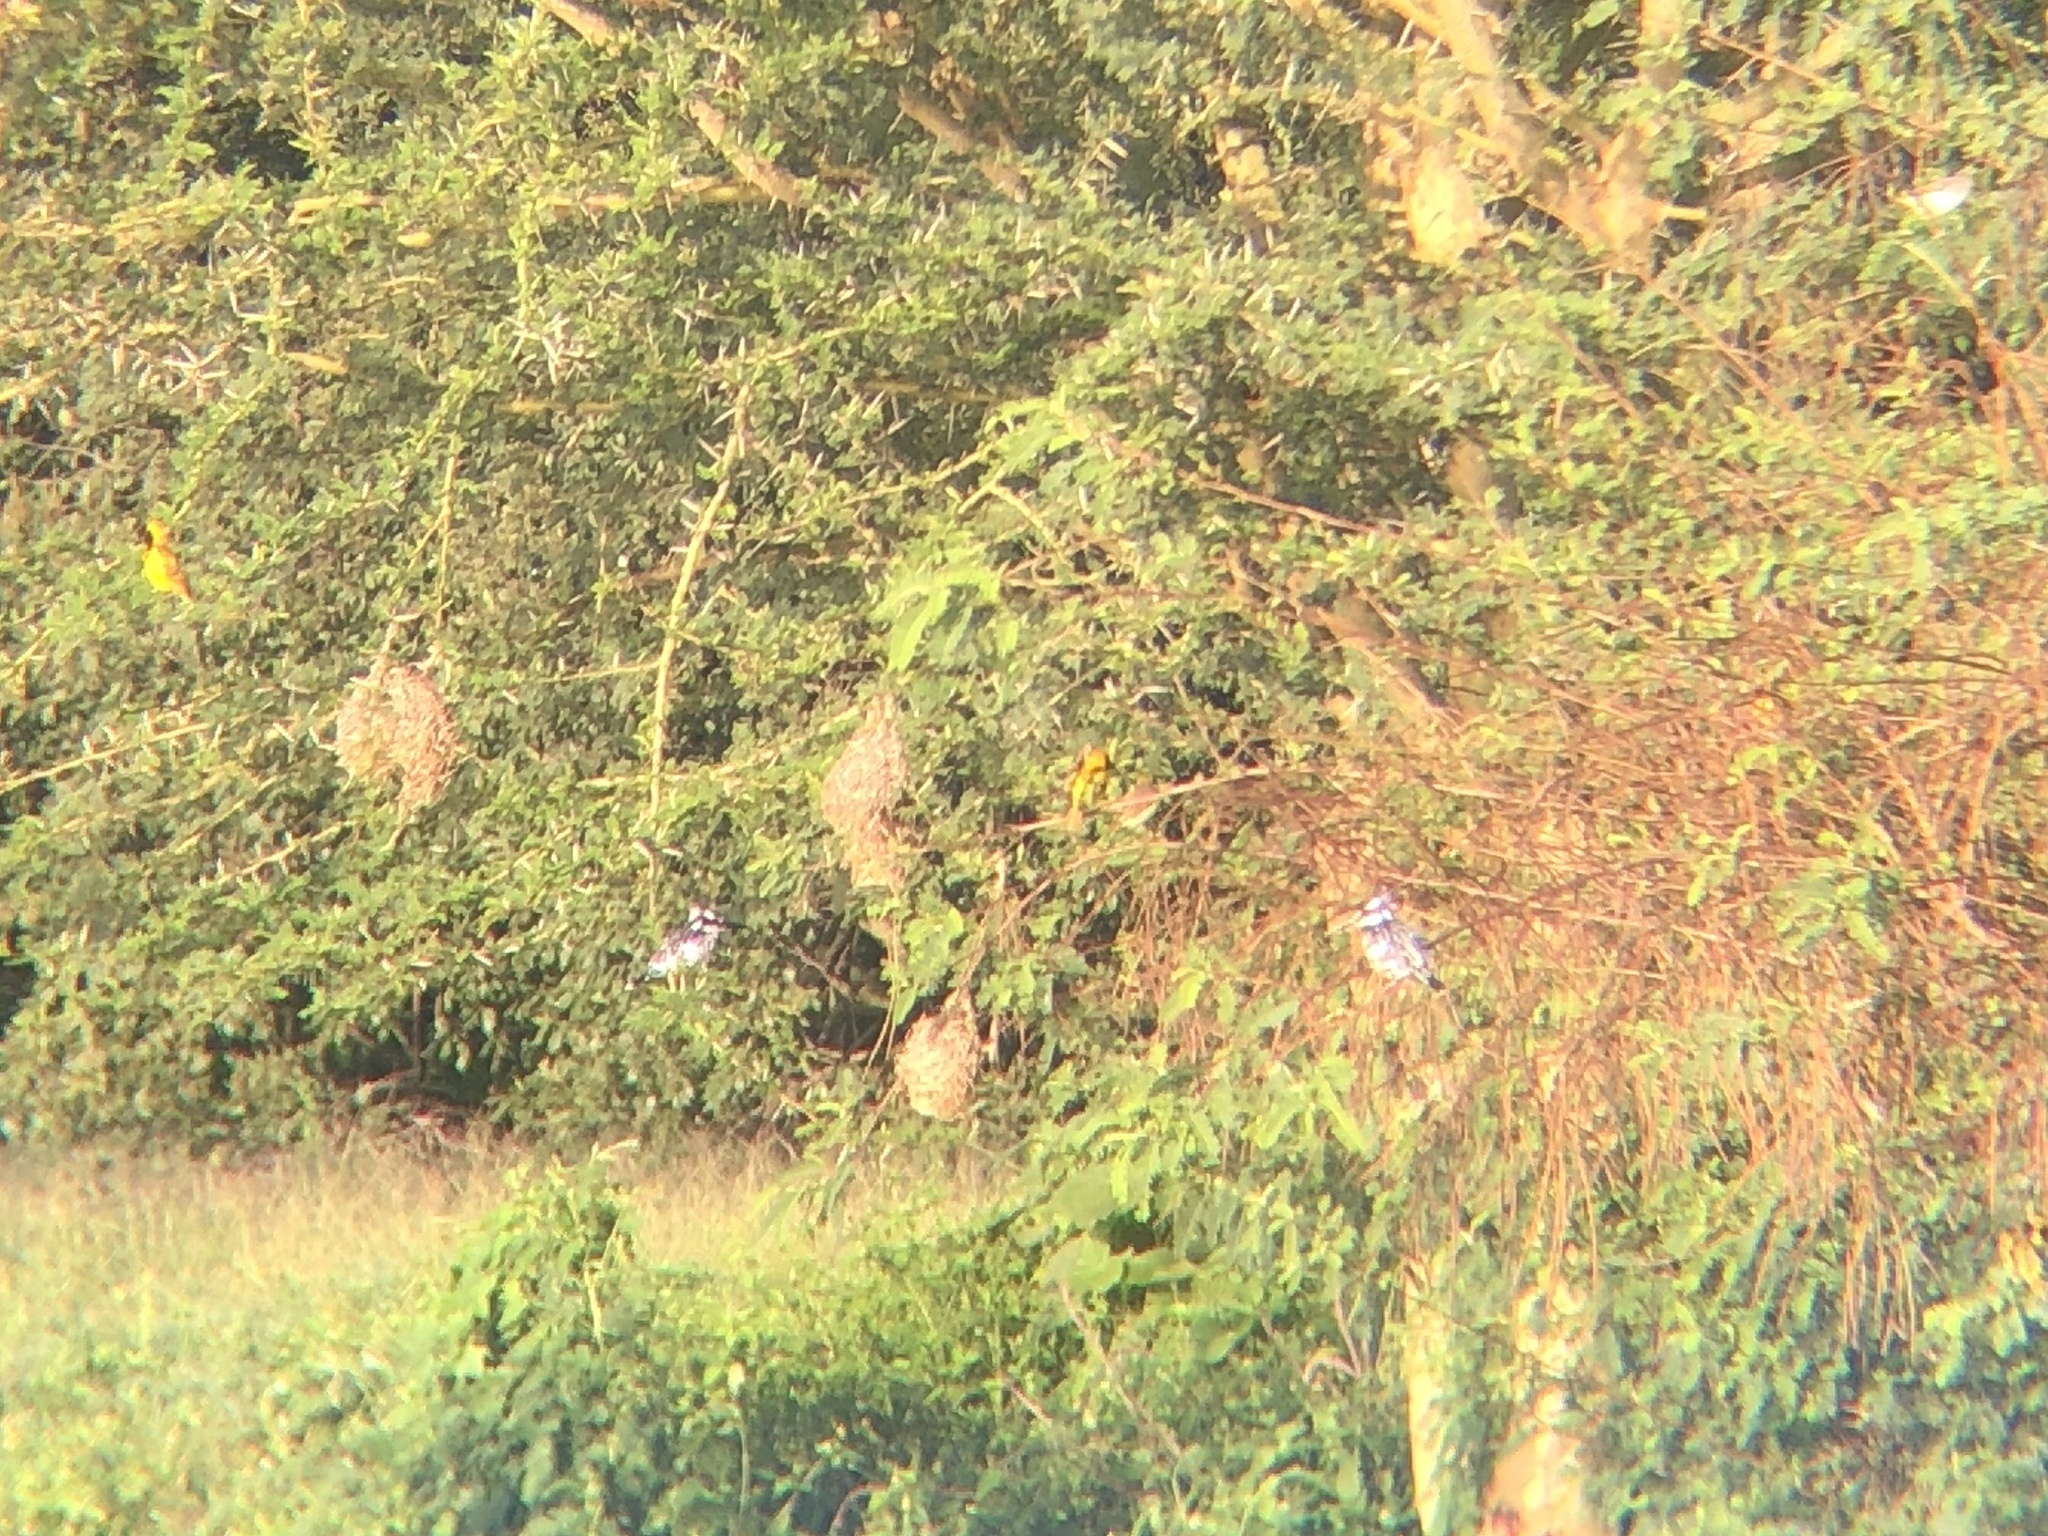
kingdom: Animalia
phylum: Chordata
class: Aves
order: Coraciiformes
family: Alcedinidae
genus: Ceryle
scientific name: Ceryle rudis
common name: Pied kingfisher
